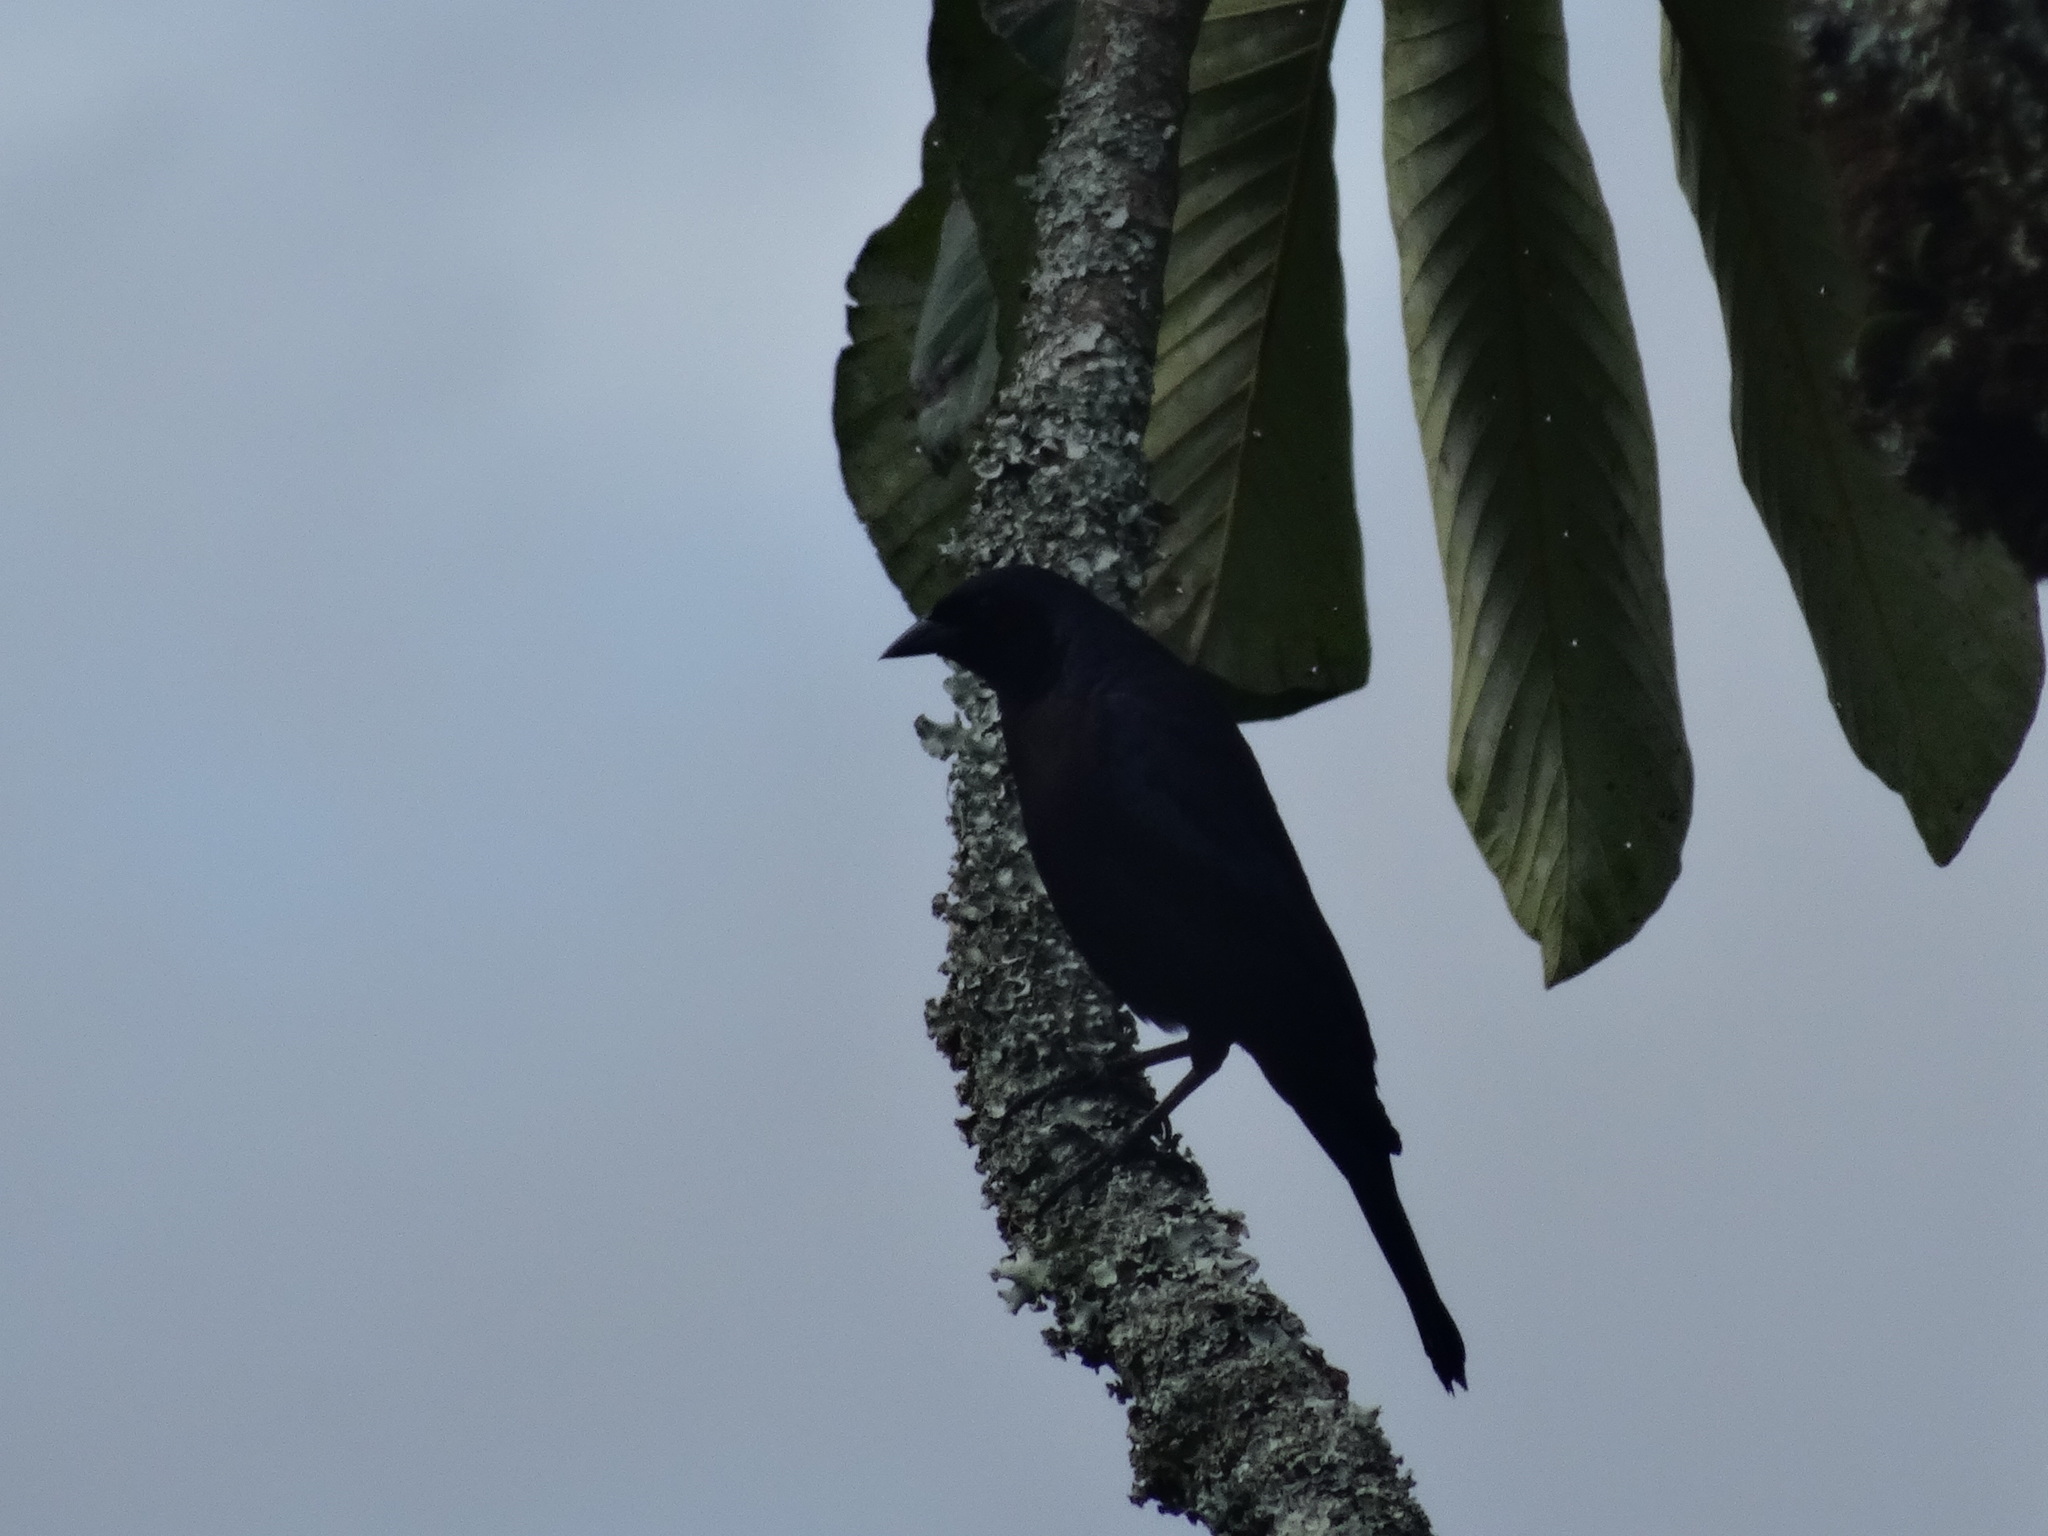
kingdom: Animalia
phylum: Chordata
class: Aves
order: Passeriformes
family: Icteridae
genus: Molothrus
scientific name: Molothrus bonariensis
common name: Shiny cowbird
